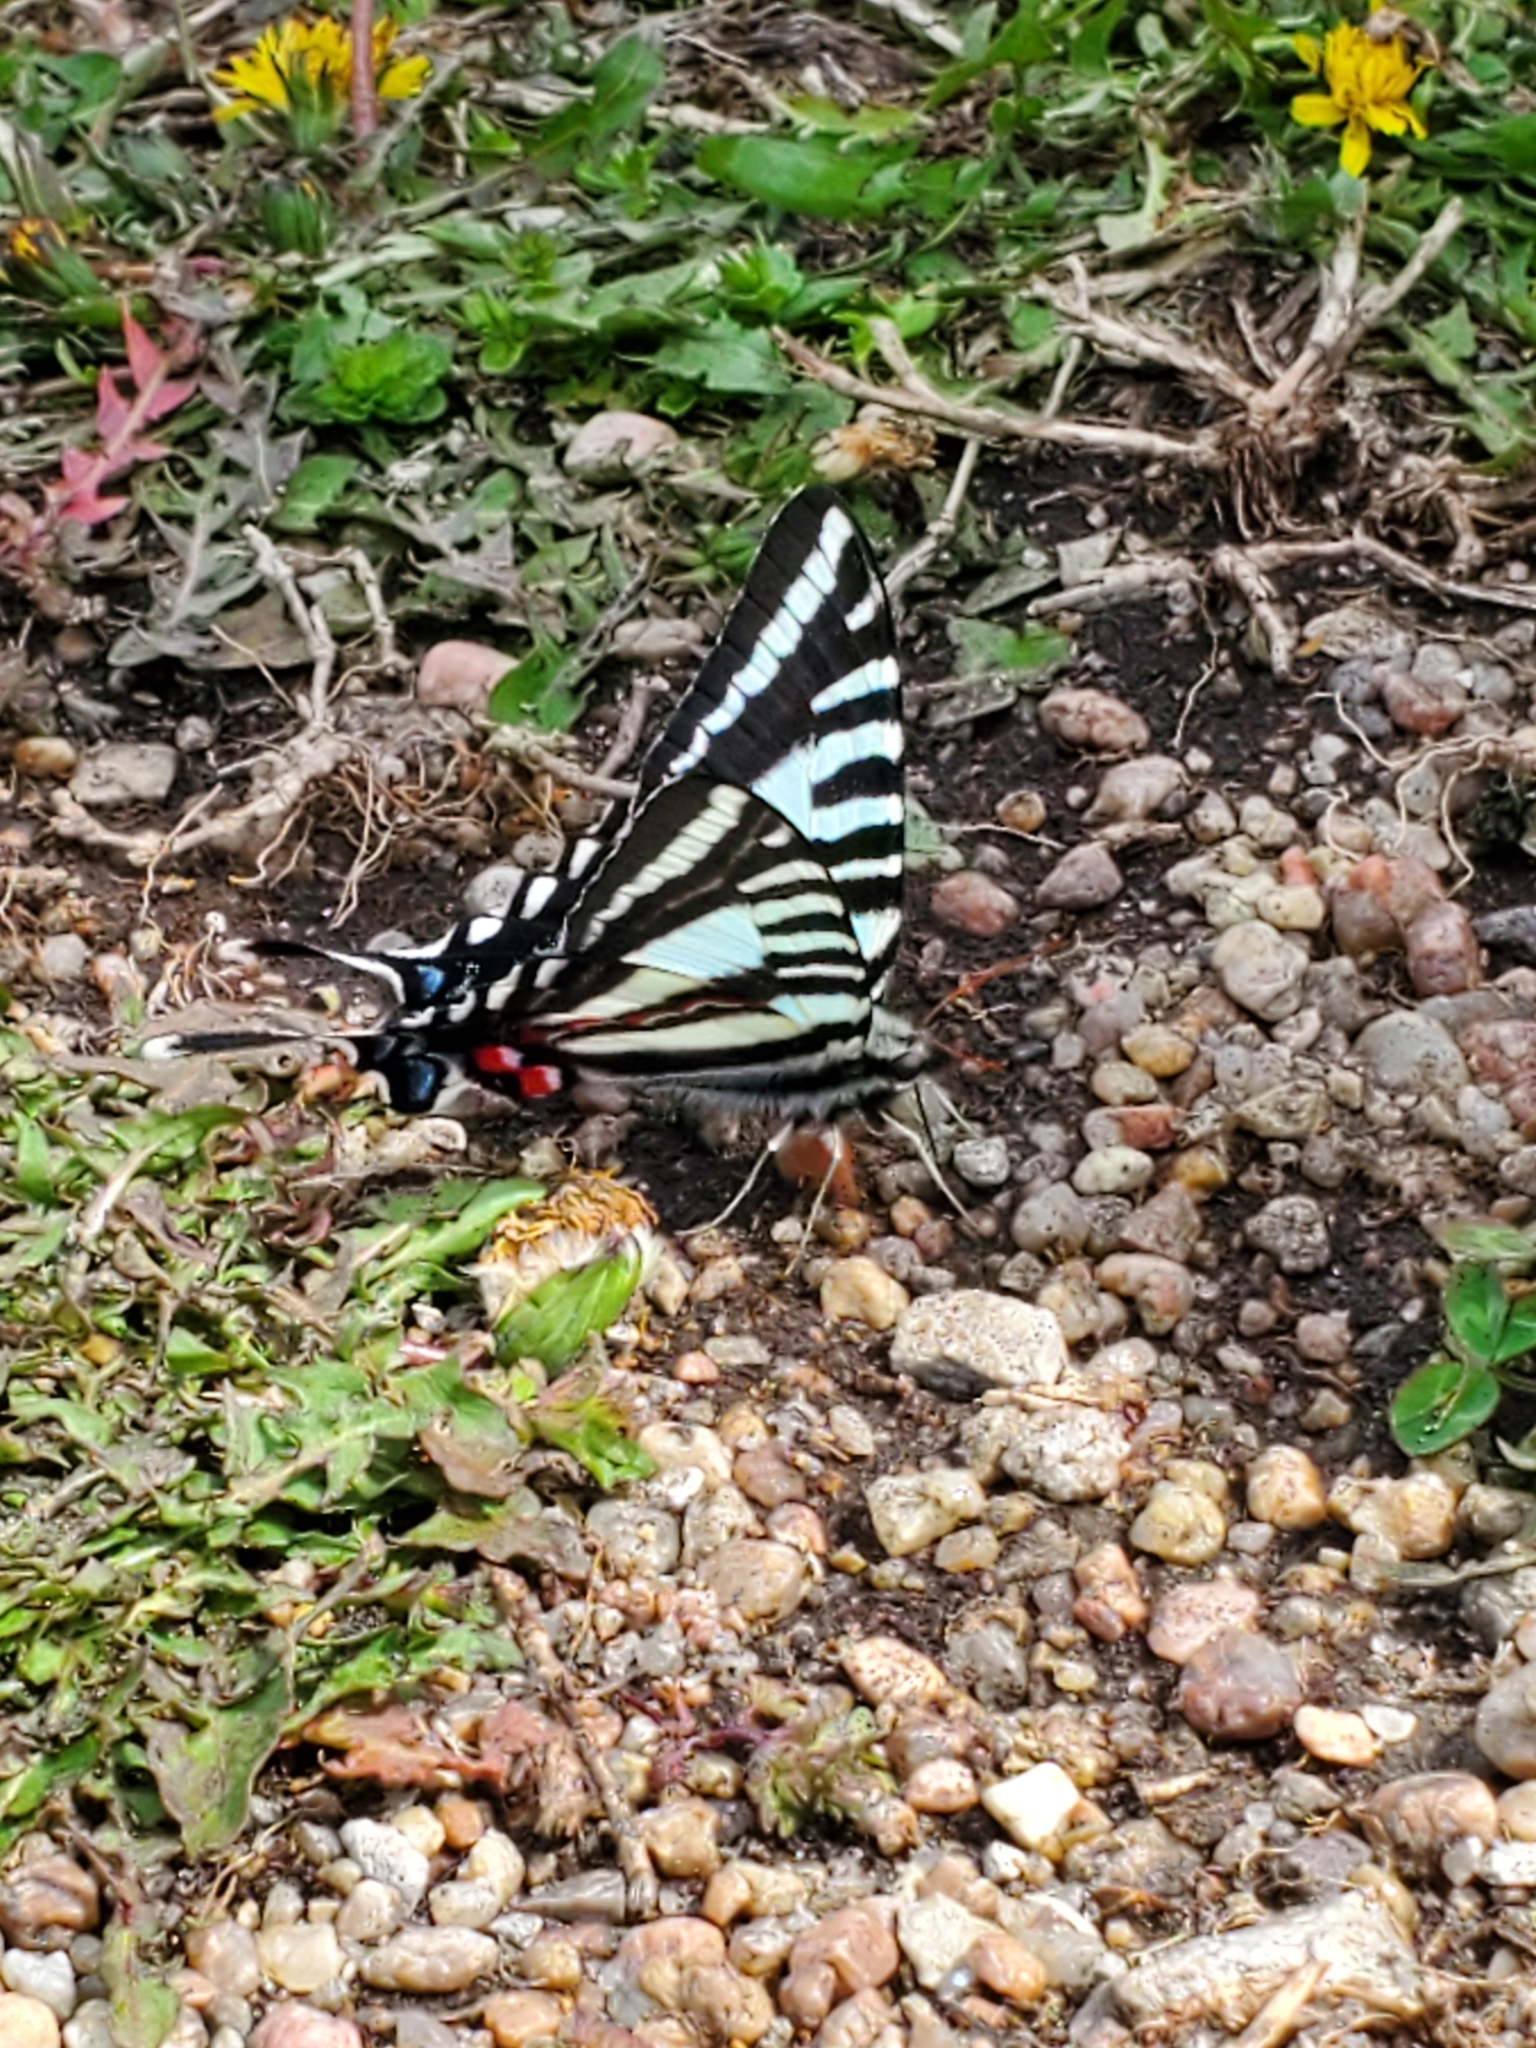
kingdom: Animalia
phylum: Arthropoda
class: Insecta
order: Lepidoptera
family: Papilionidae
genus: Protographium
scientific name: Protographium marcellus
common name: Zebra swallowtail
